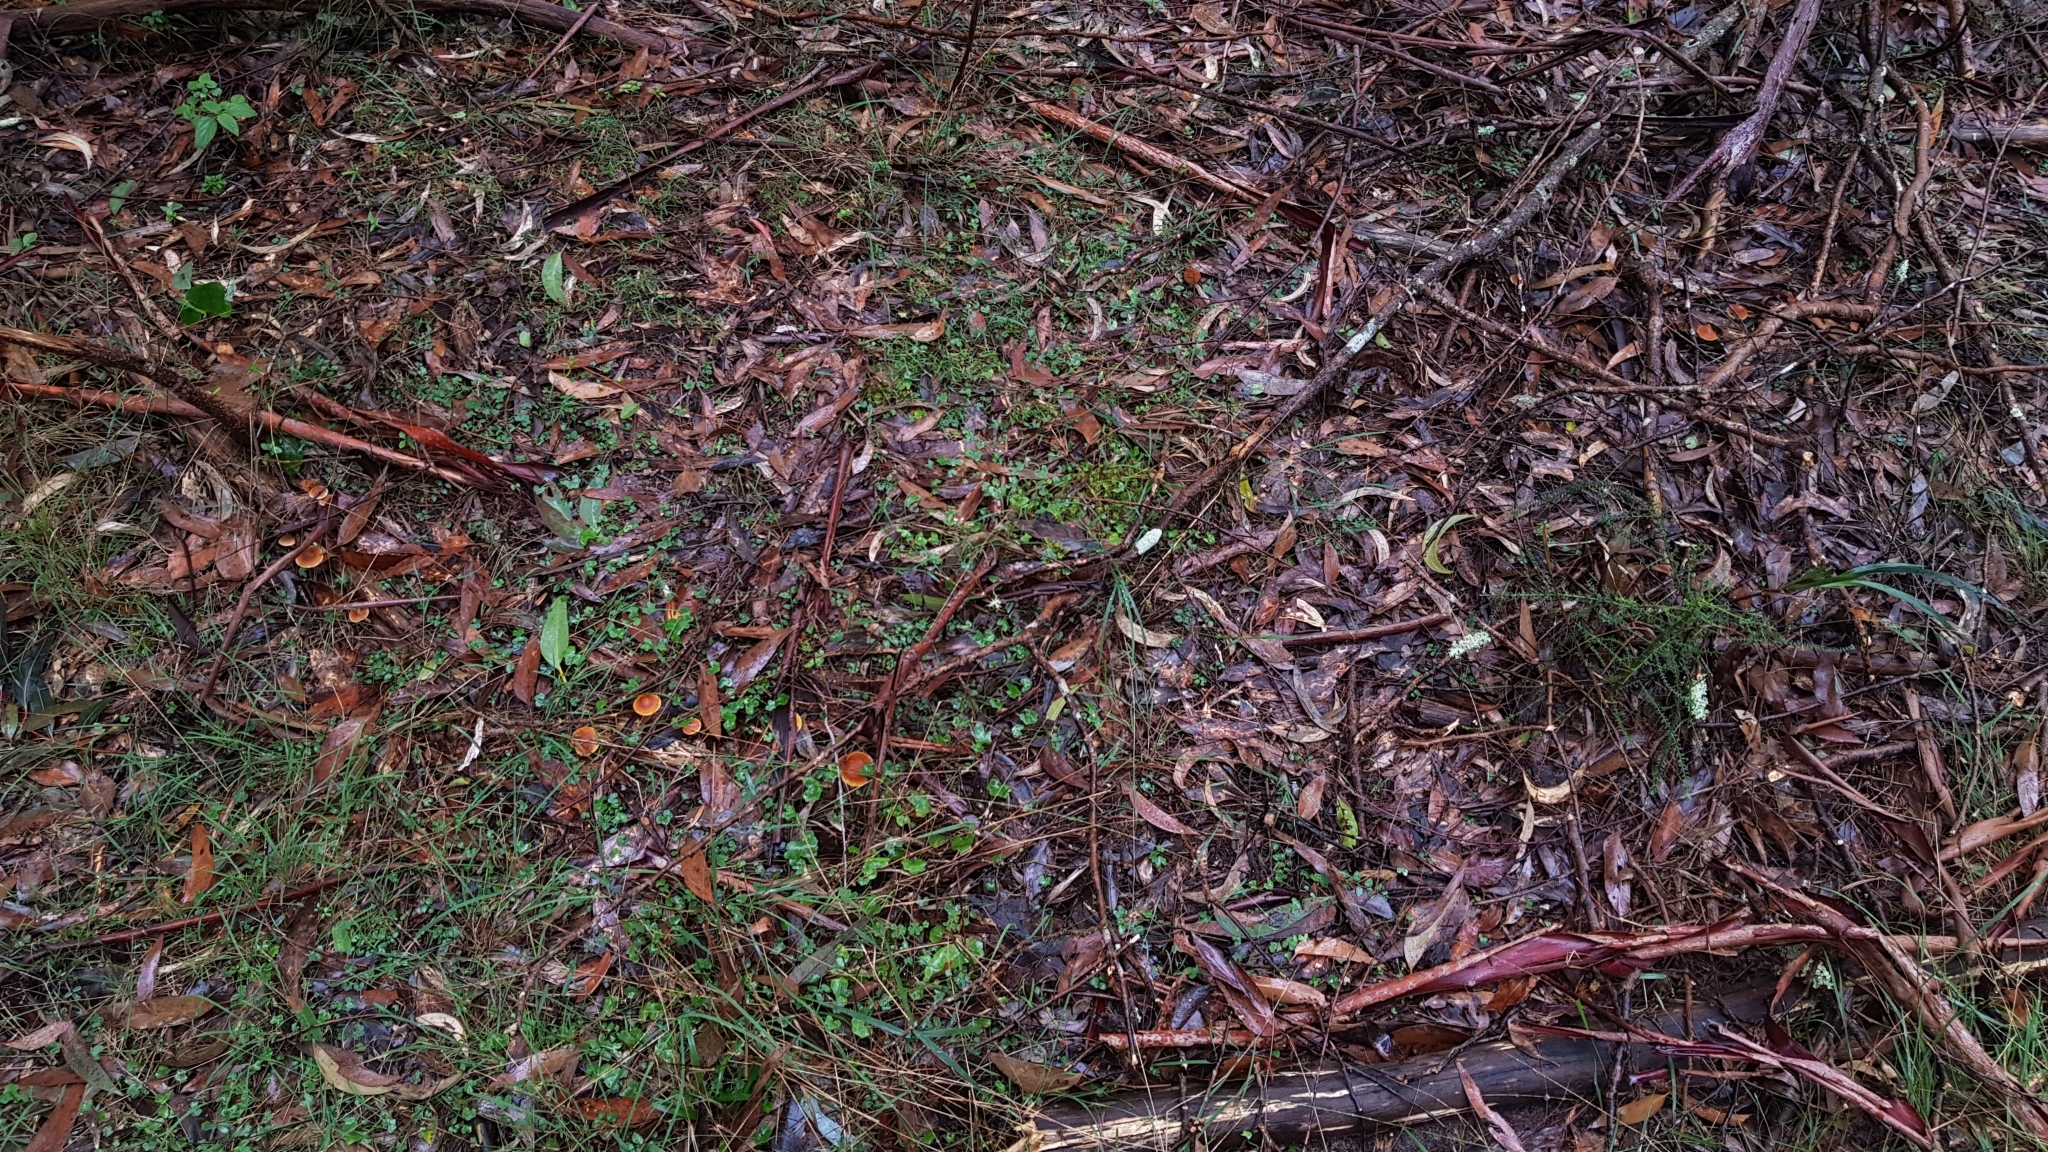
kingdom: Fungi
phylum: Basidiomycota
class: Agaricomycetes
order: Agaricales
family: Hymenogastraceae
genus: Gymnopilus
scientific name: Gymnopilus allantopus
